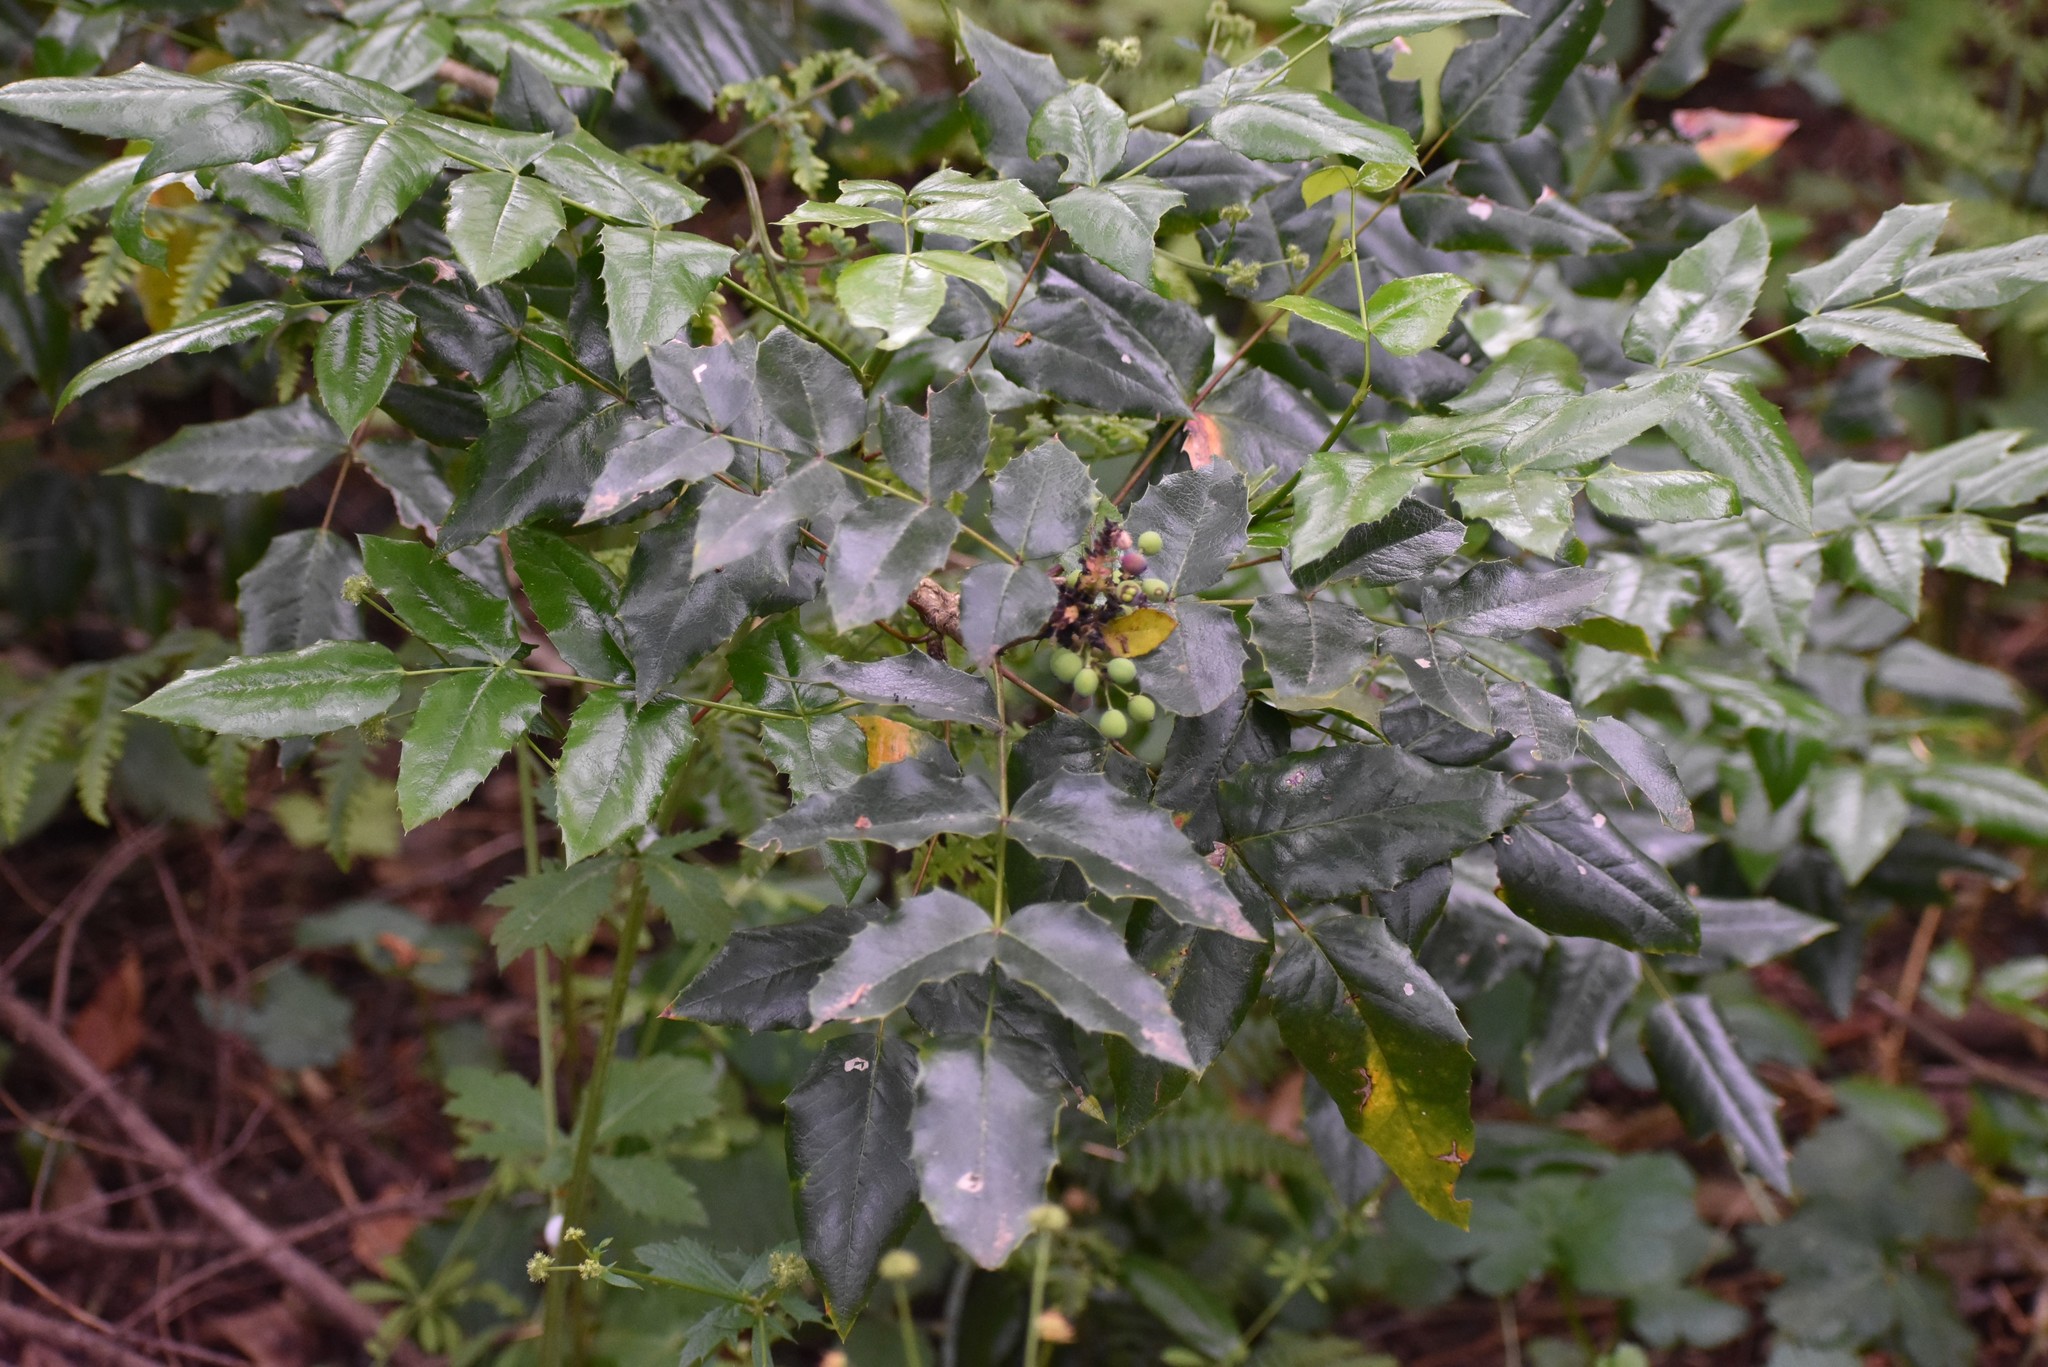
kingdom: Plantae
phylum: Tracheophyta
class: Magnoliopsida
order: Ranunculales
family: Berberidaceae
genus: Mahonia
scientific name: Mahonia aquifolium
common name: Oregon-grape
